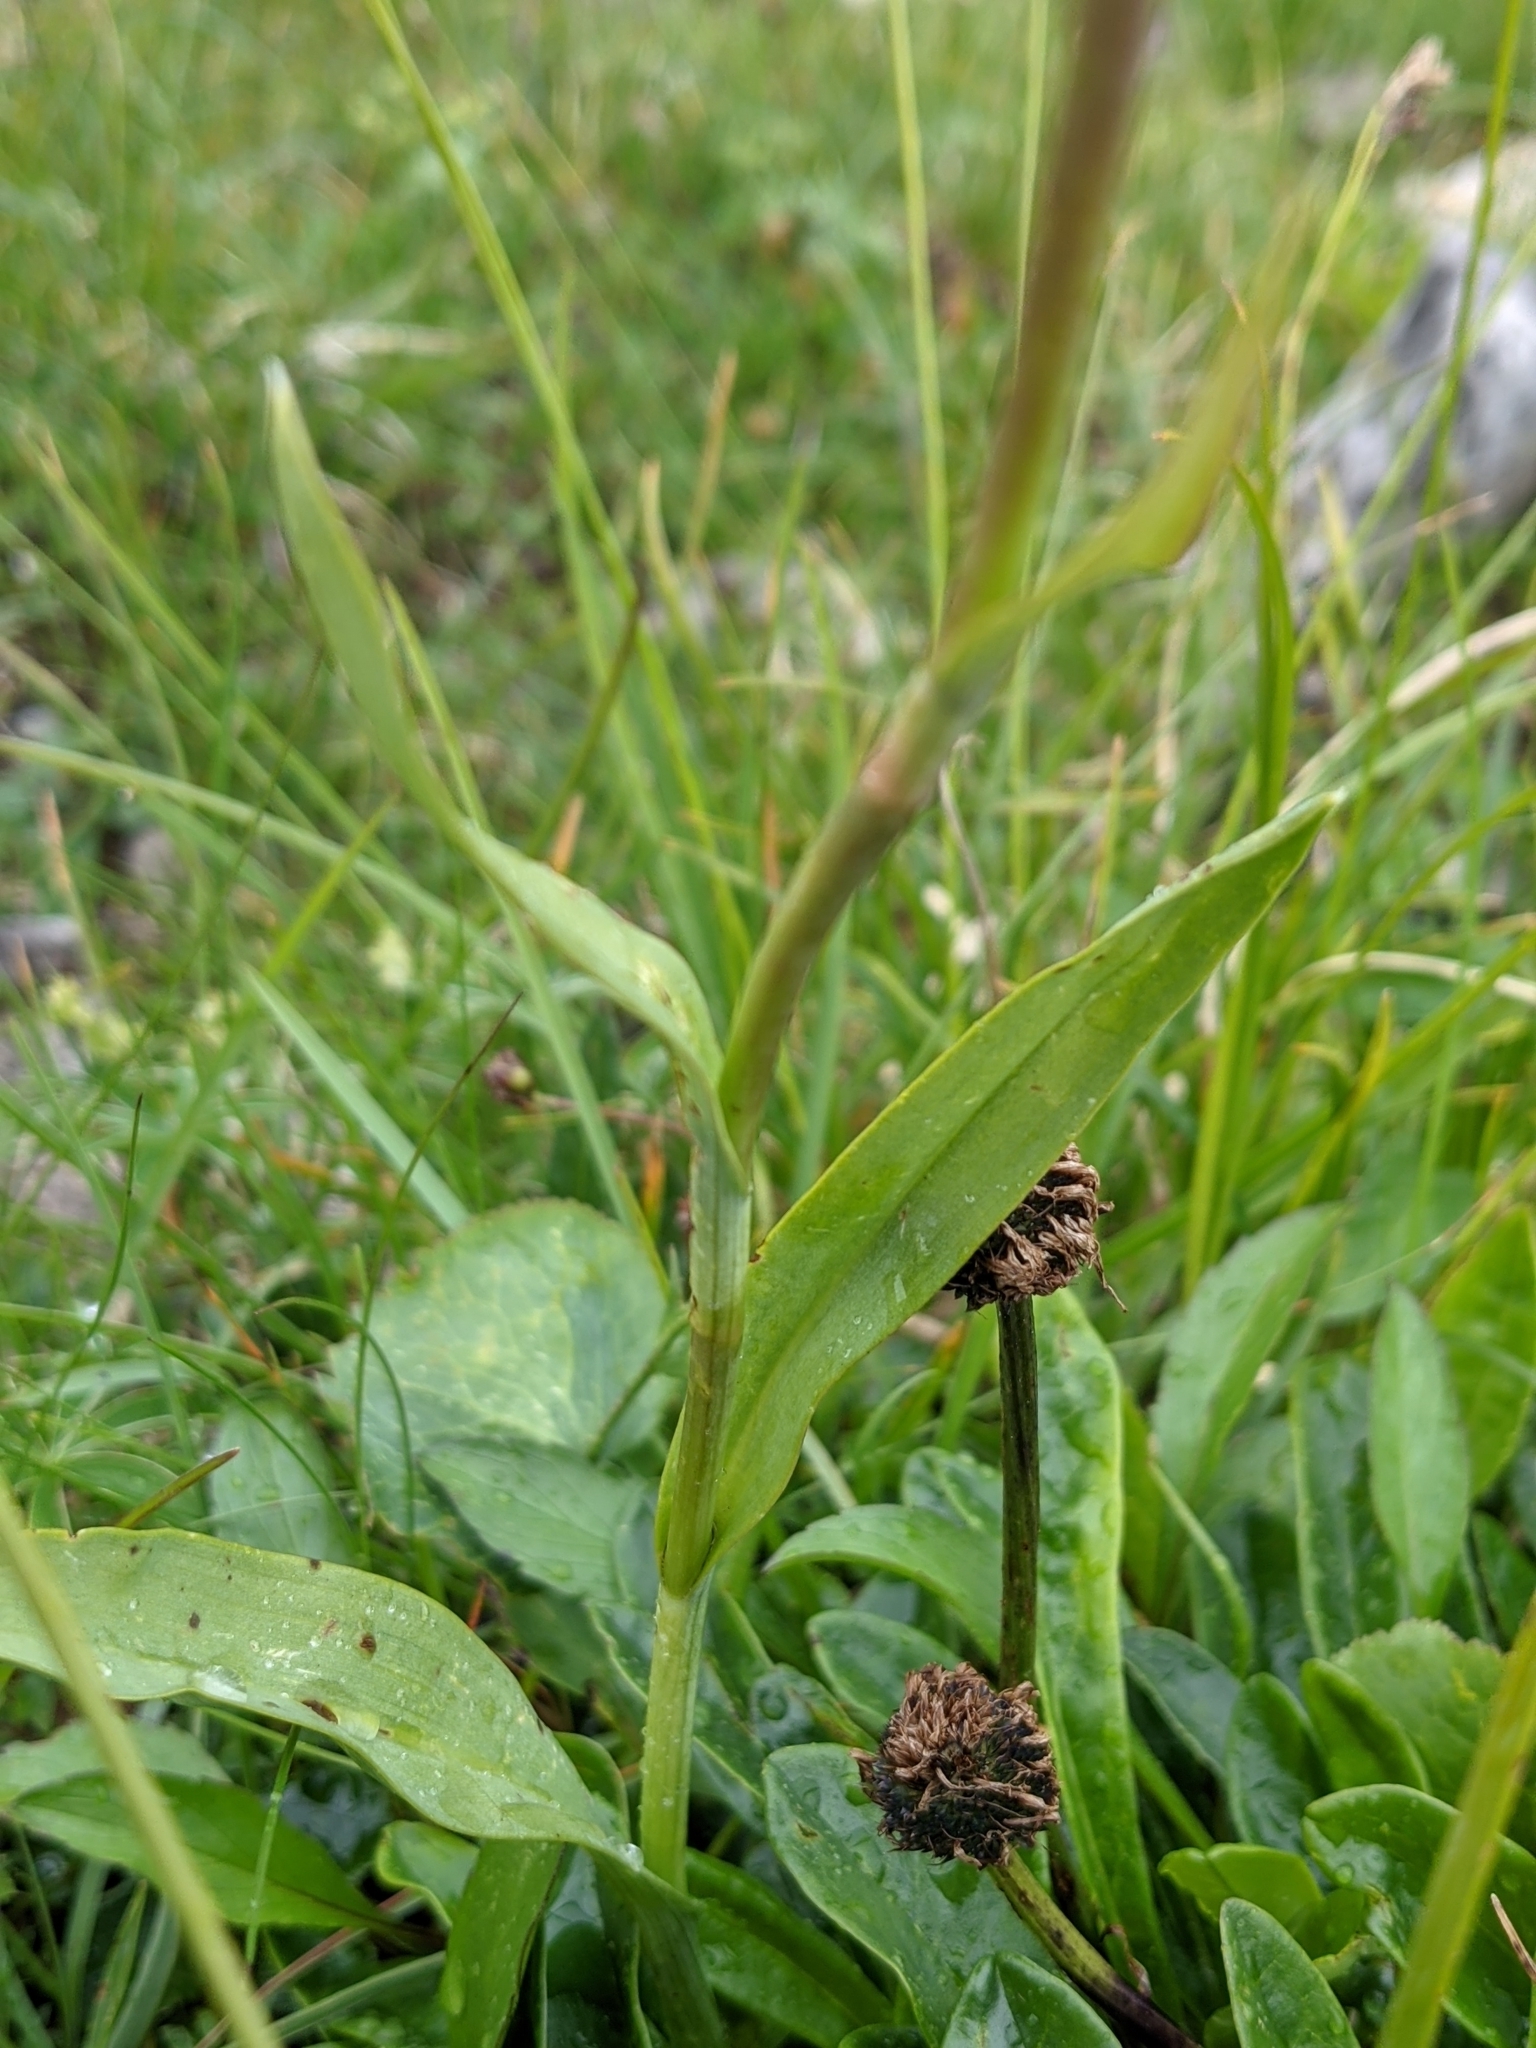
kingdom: Plantae
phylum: Tracheophyta
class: Liliopsida
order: Asparagales
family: Orchidaceae
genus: Traunsteinera
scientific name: Traunsteinera globosa
